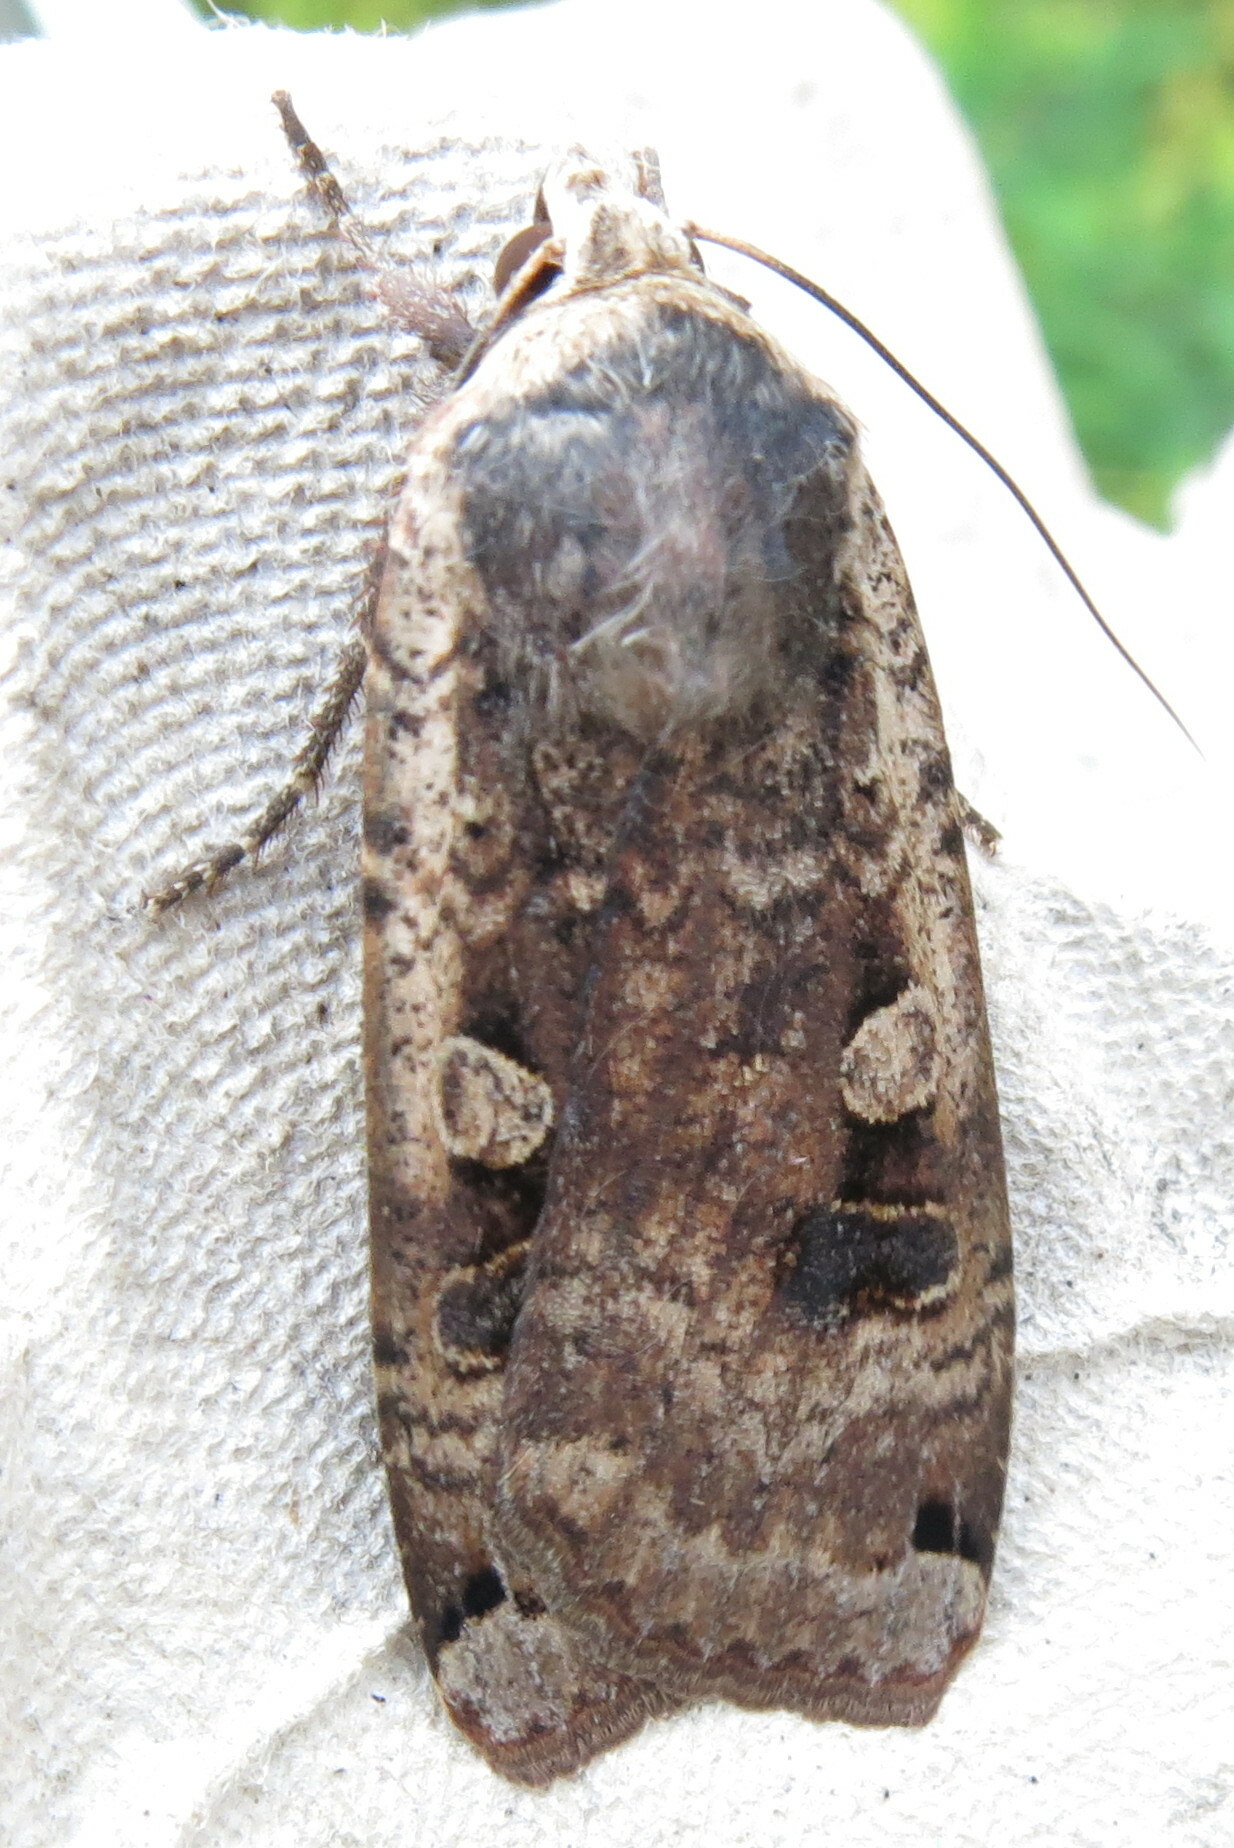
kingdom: Animalia
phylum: Arthropoda
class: Insecta
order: Lepidoptera
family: Noctuidae
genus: Noctua
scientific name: Noctua pronuba
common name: Large yellow underwing
